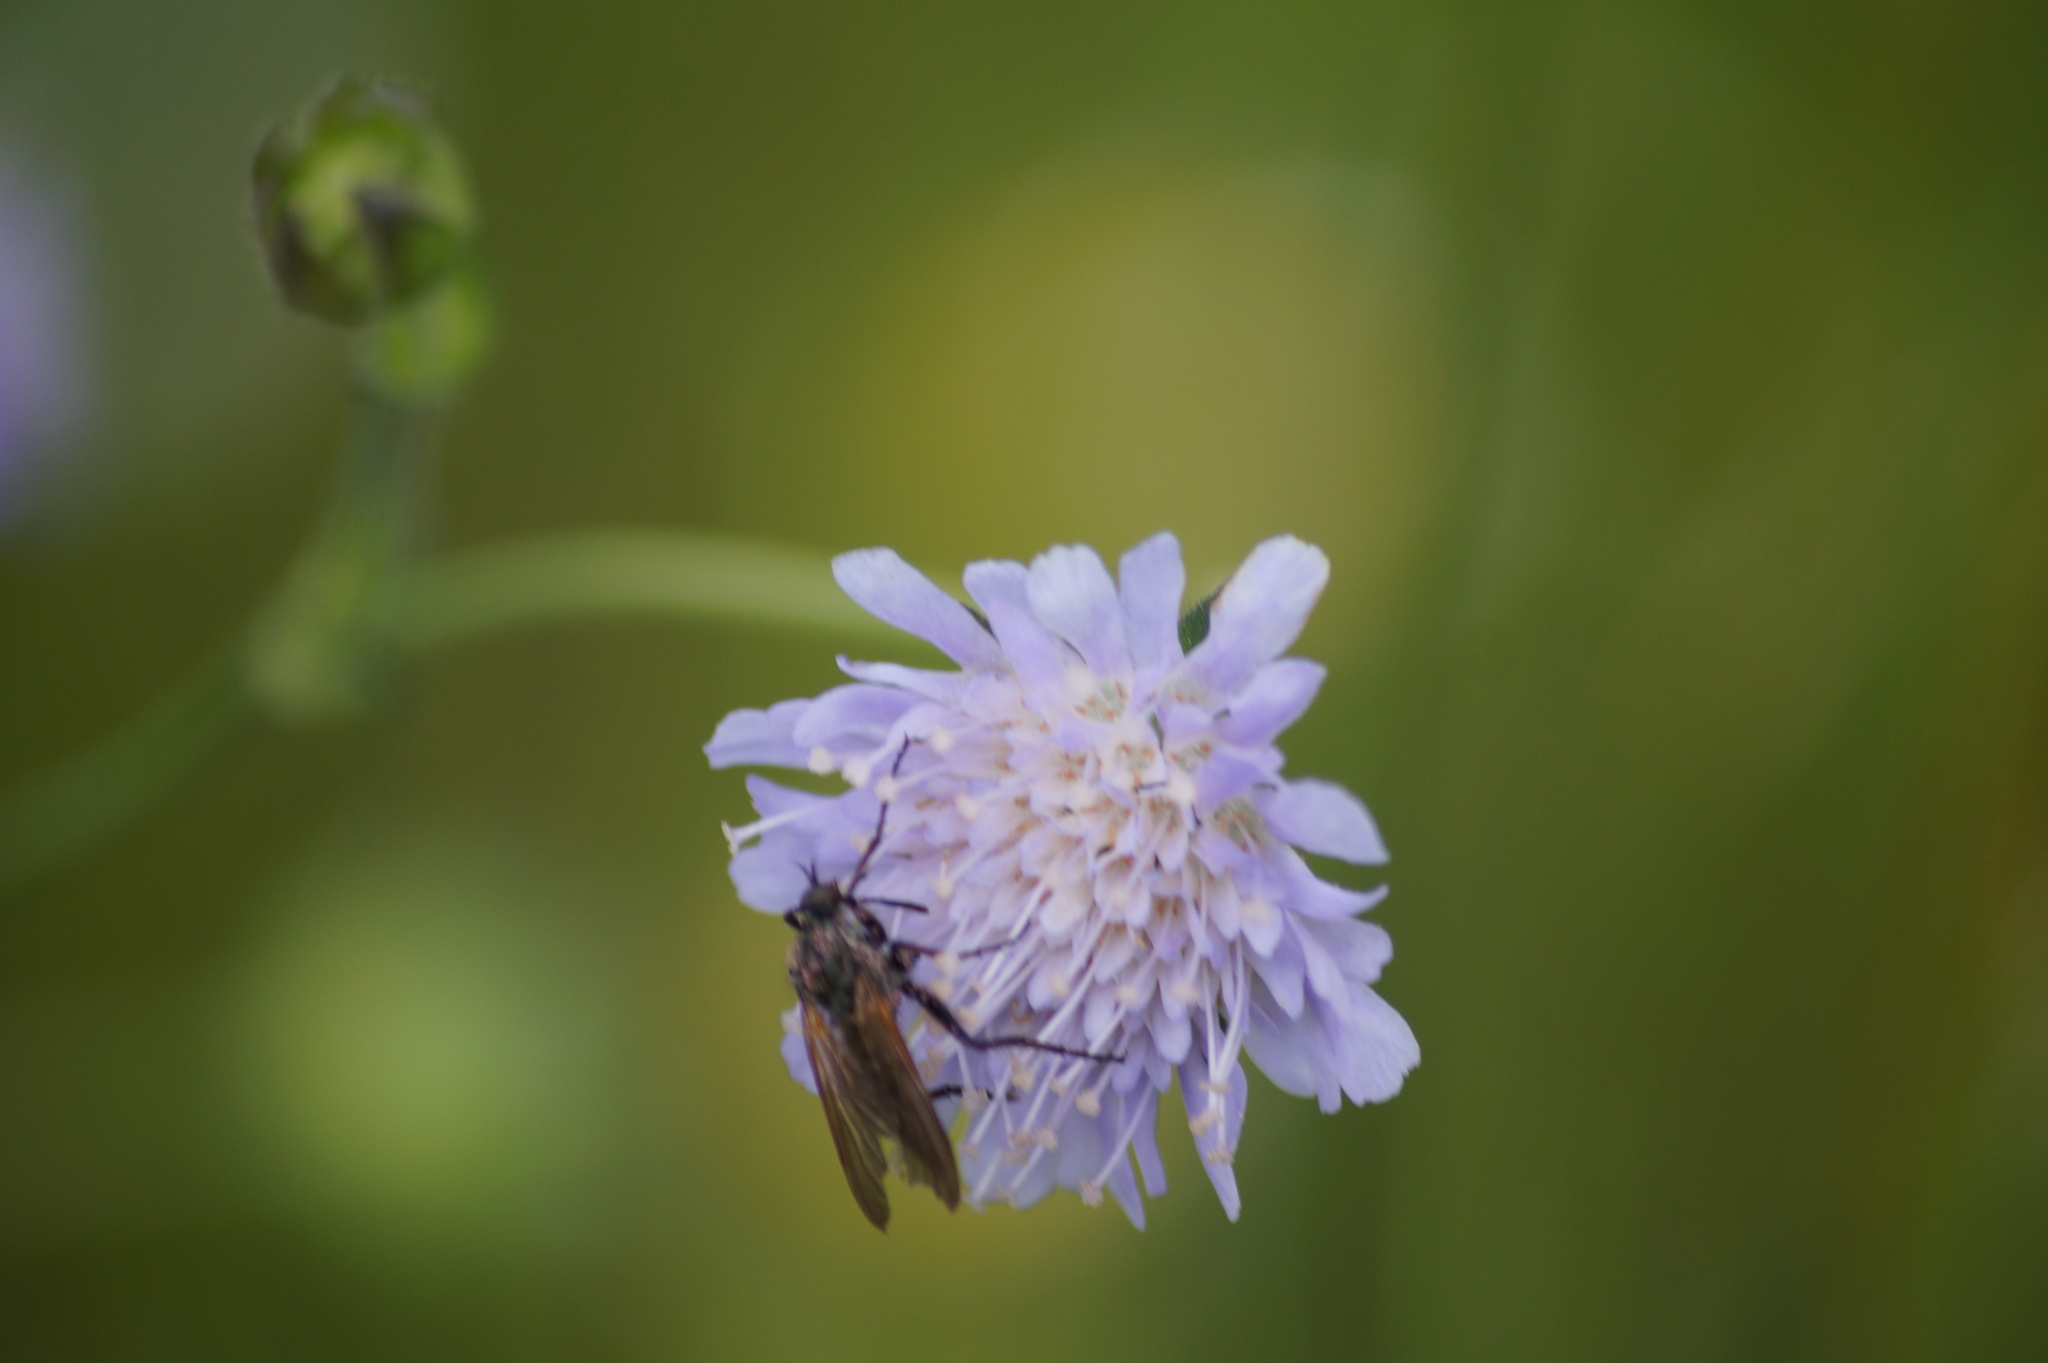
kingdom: Animalia
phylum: Arthropoda
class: Insecta
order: Diptera
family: Empididae
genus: Empis
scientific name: Empis tessellata
